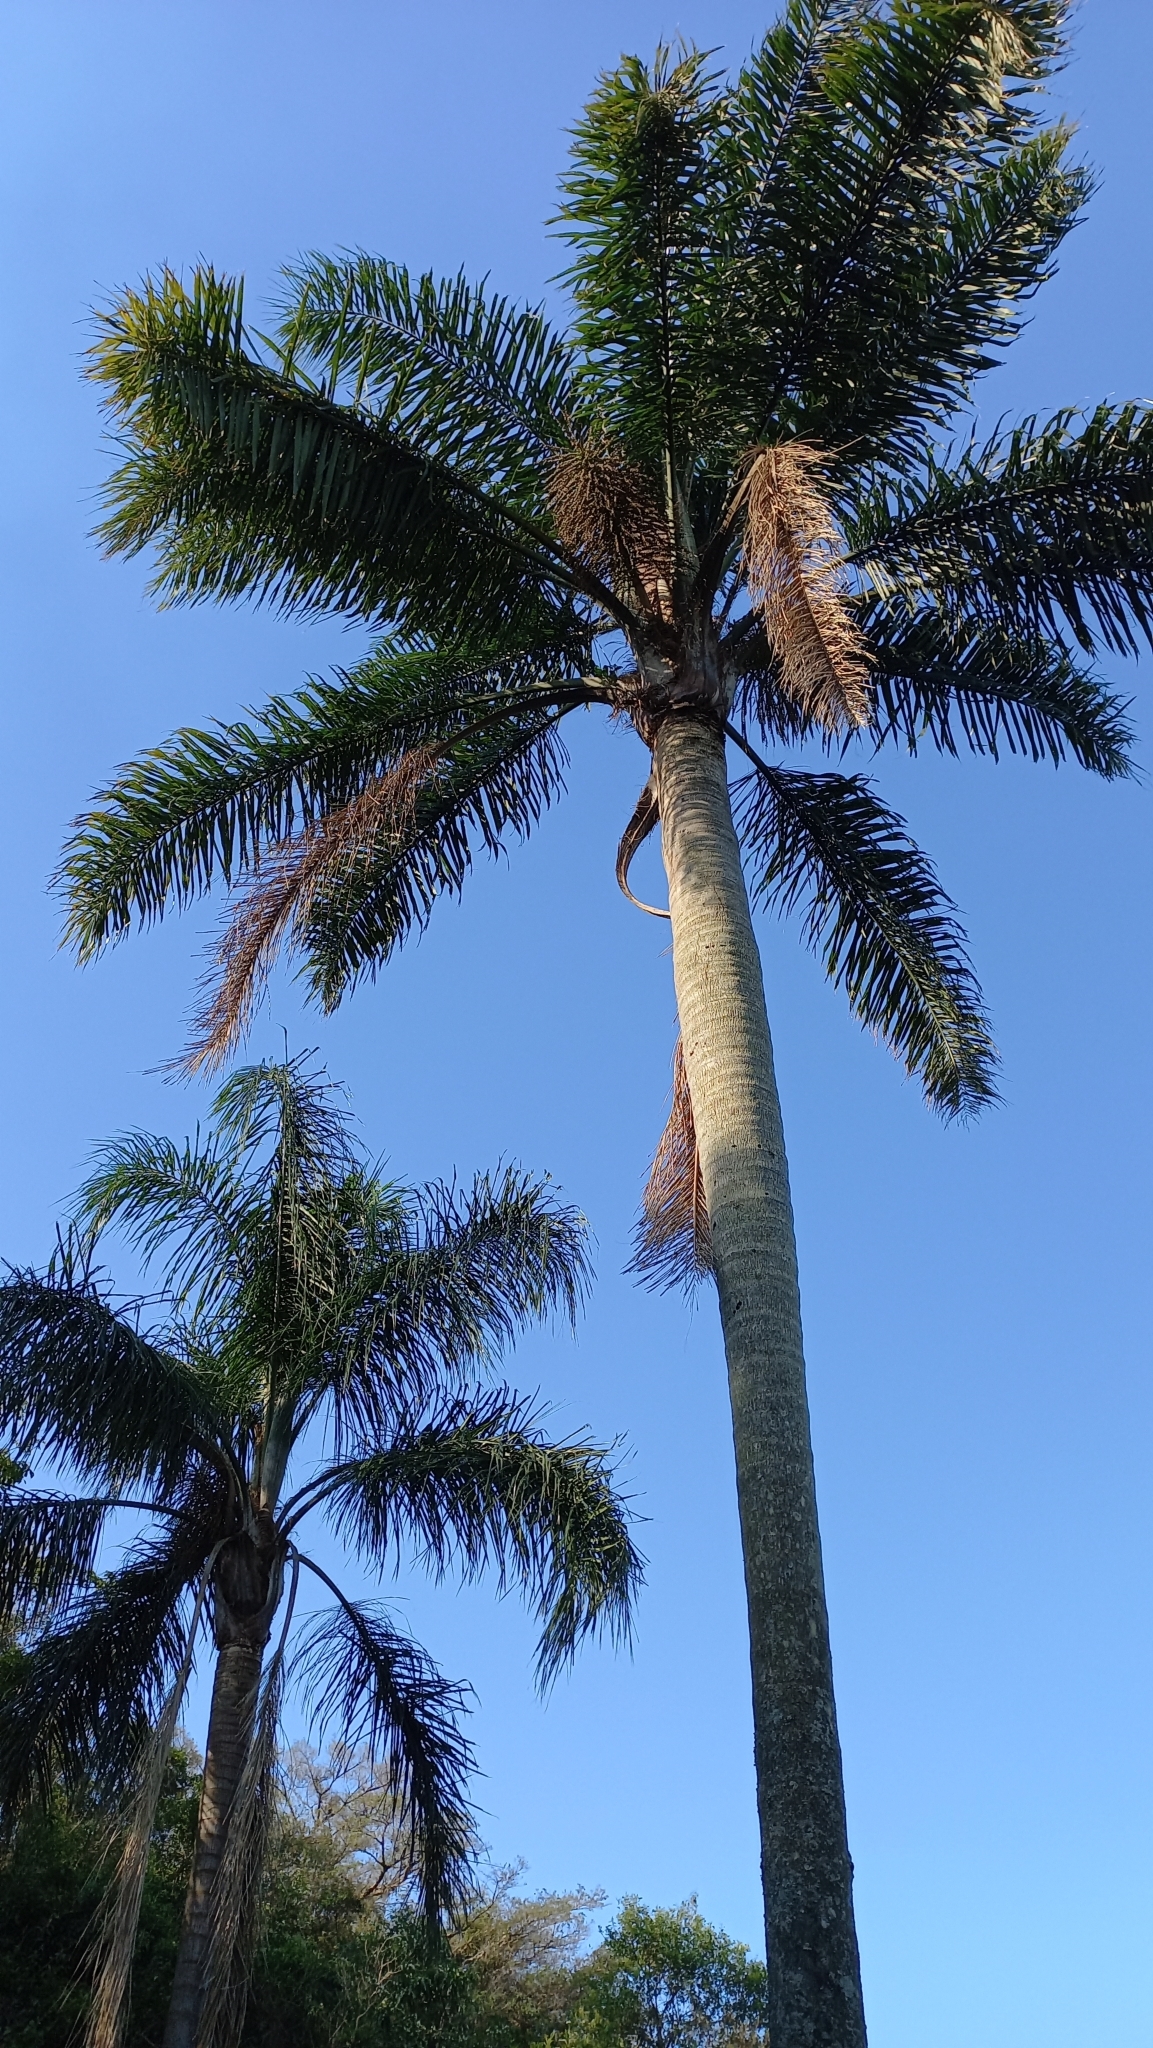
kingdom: Plantae
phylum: Tracheophyta
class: Liliopsida
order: Arecales
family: Arecaceae
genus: Syagrus
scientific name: Syagrus romanzoffiana
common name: Queen palm
